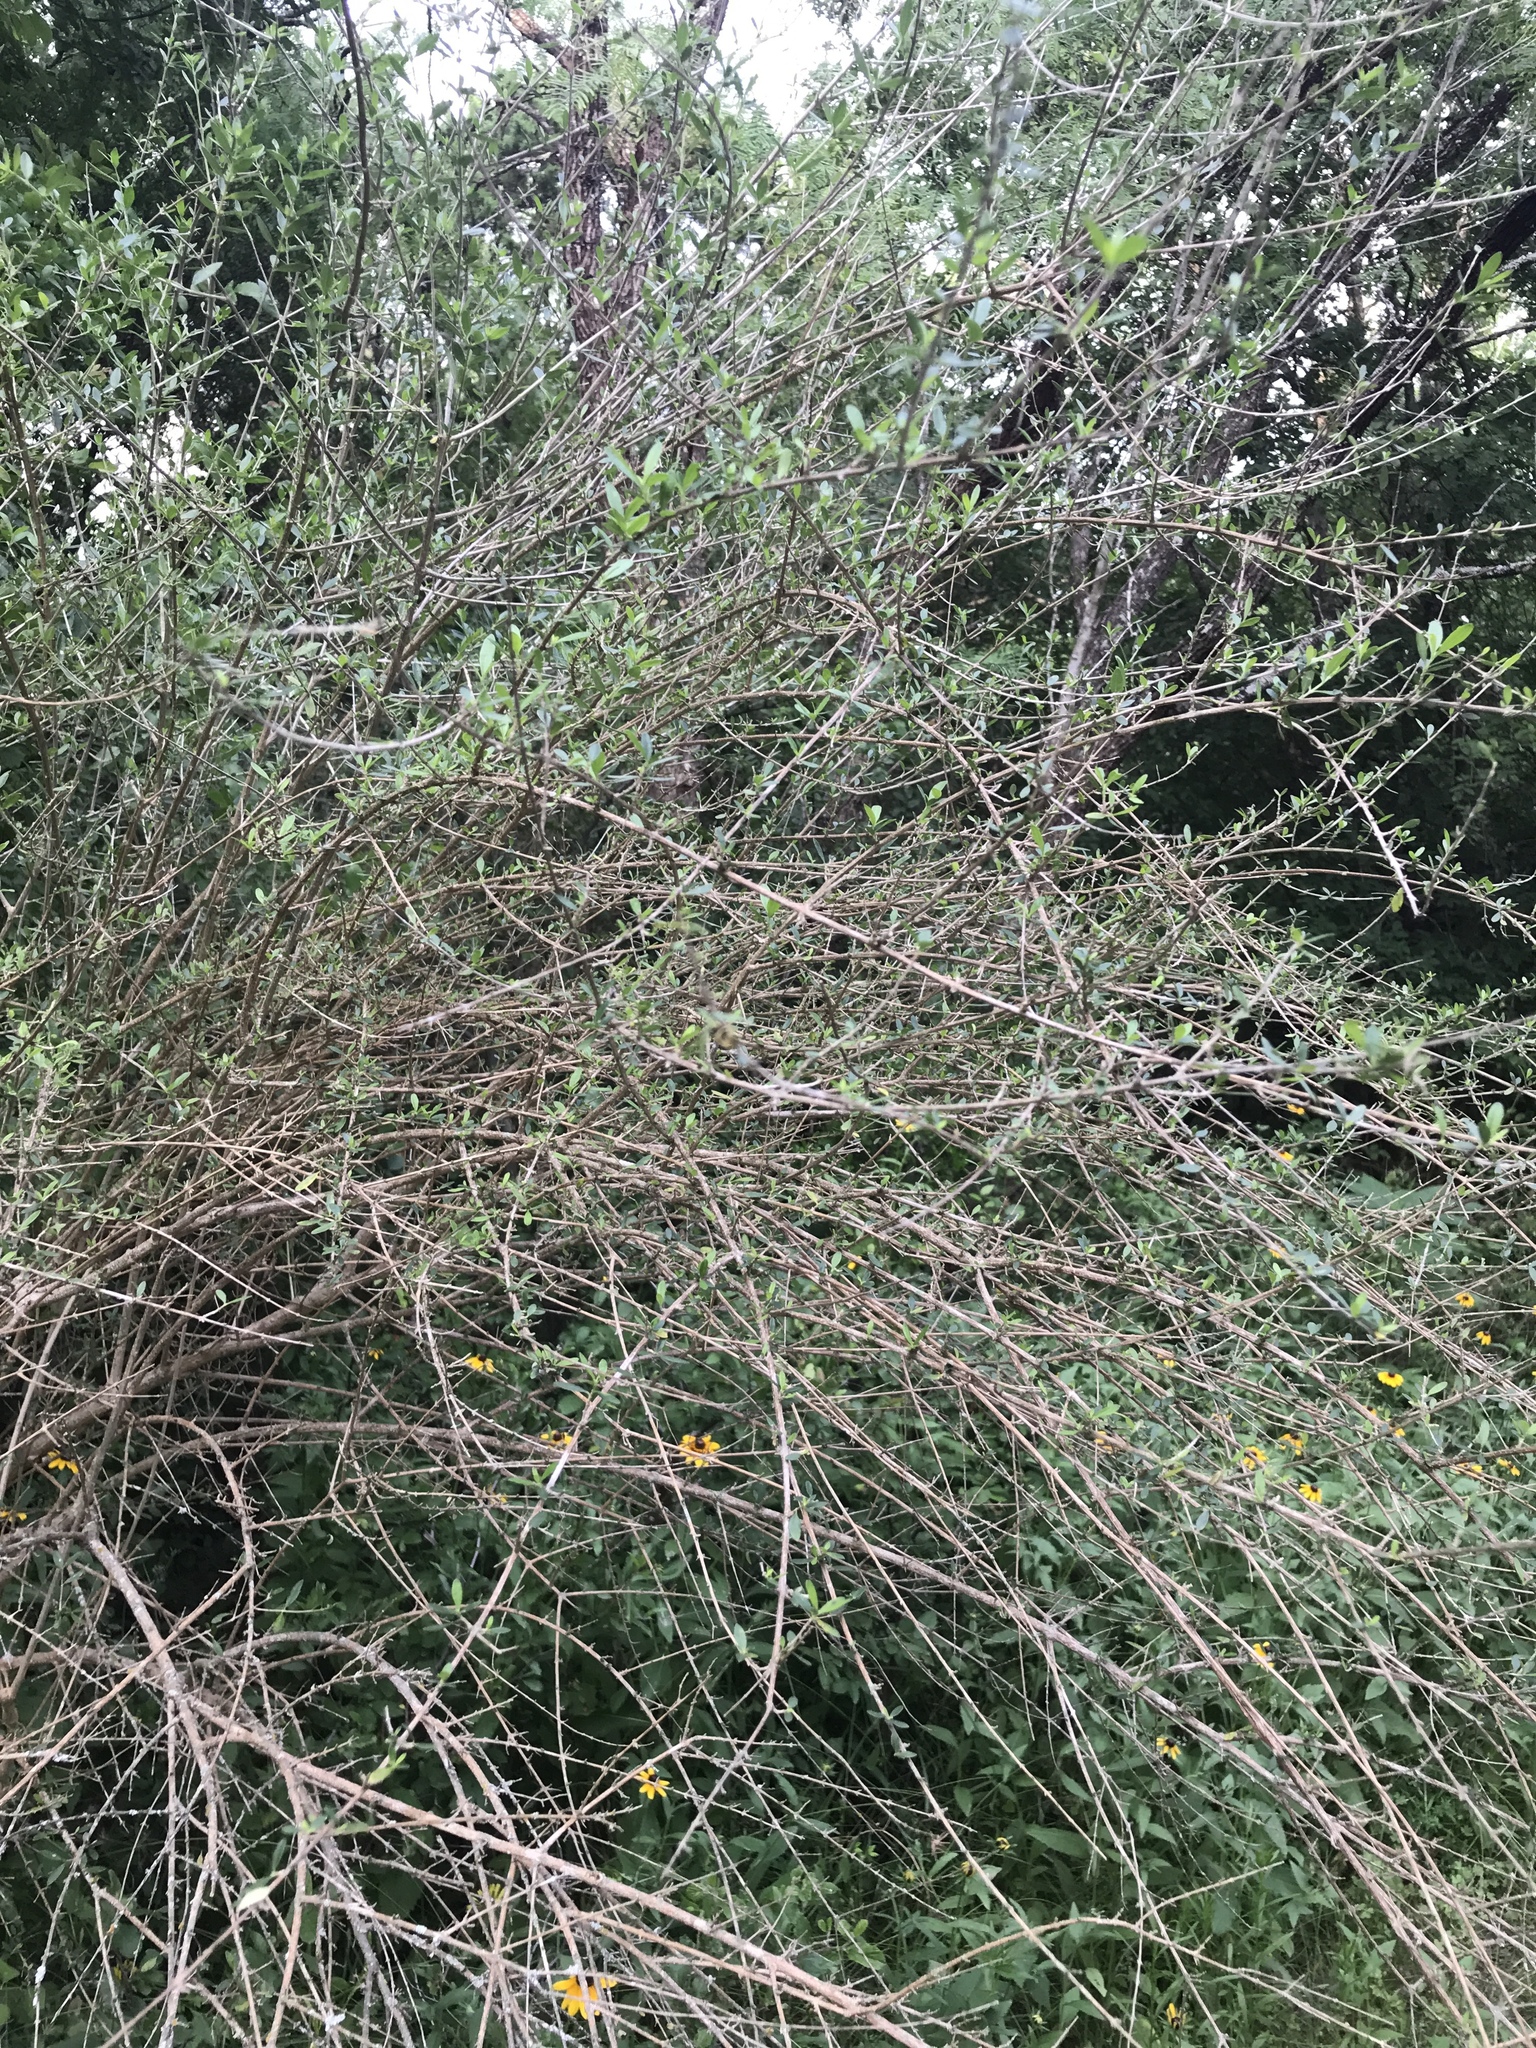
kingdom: Plantae
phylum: Tracheophyta
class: Magnoliopsida
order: Lamiales
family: Verbenaceae
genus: Aloysia
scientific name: Aloysia gratissima
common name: Common bee-brush
